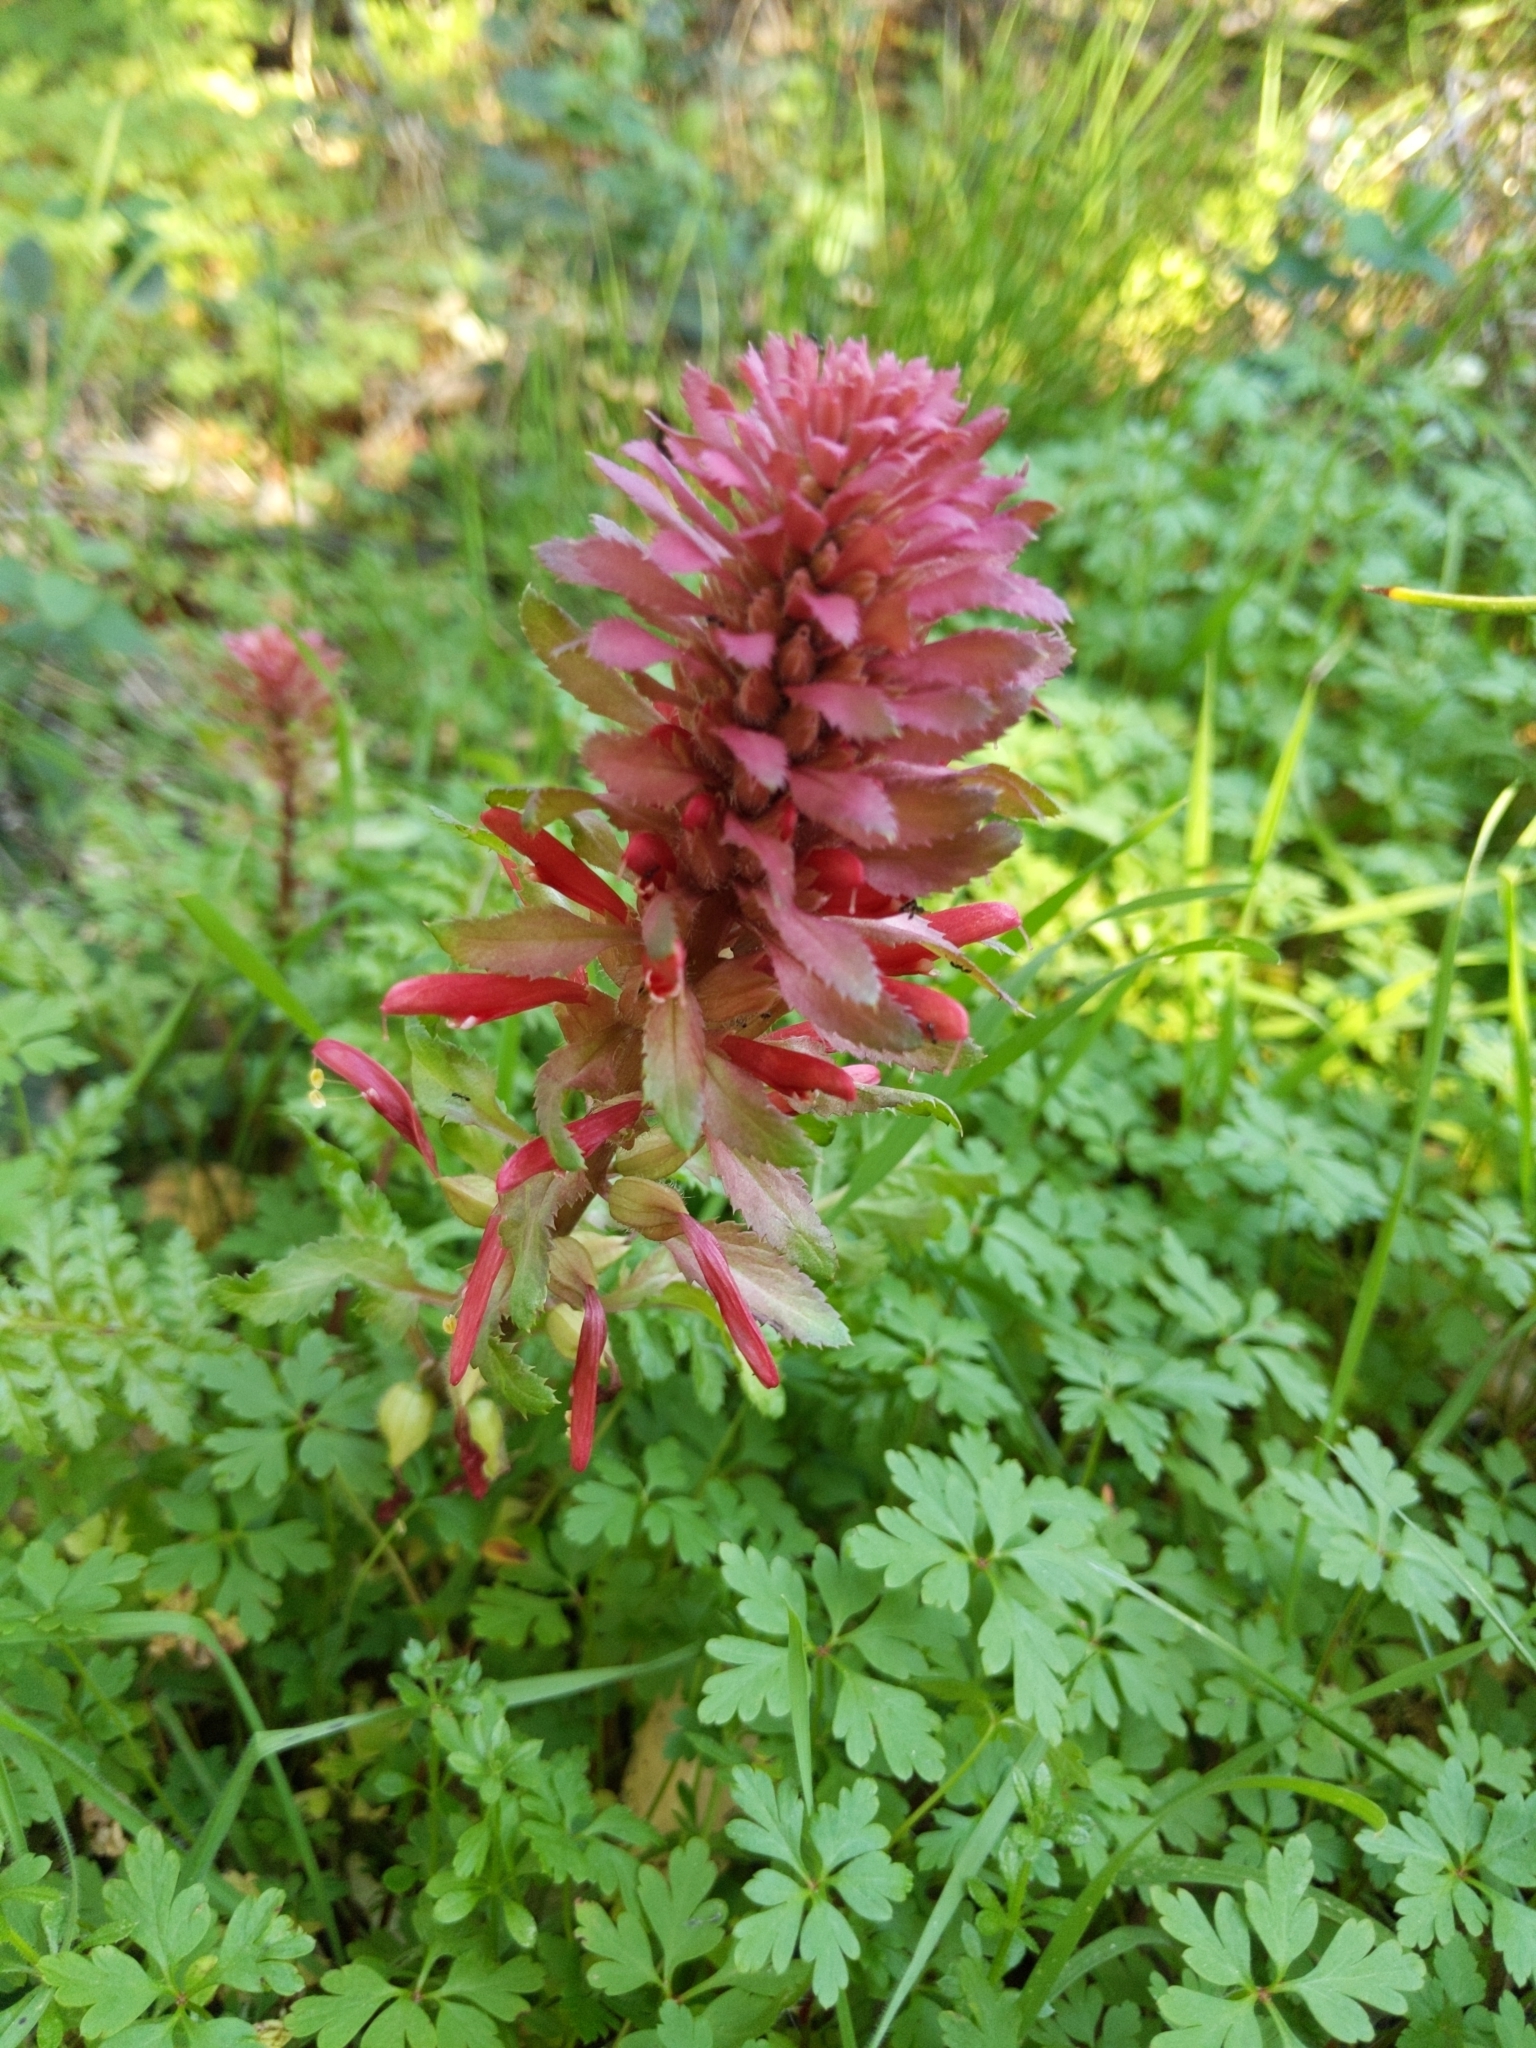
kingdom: Plantae
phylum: Tracheophyta
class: Magnoliopsida
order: Lamiales
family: Orobanchaceae
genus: Pedicularis
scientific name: Pedicularis densiflora
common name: Indian warrior
